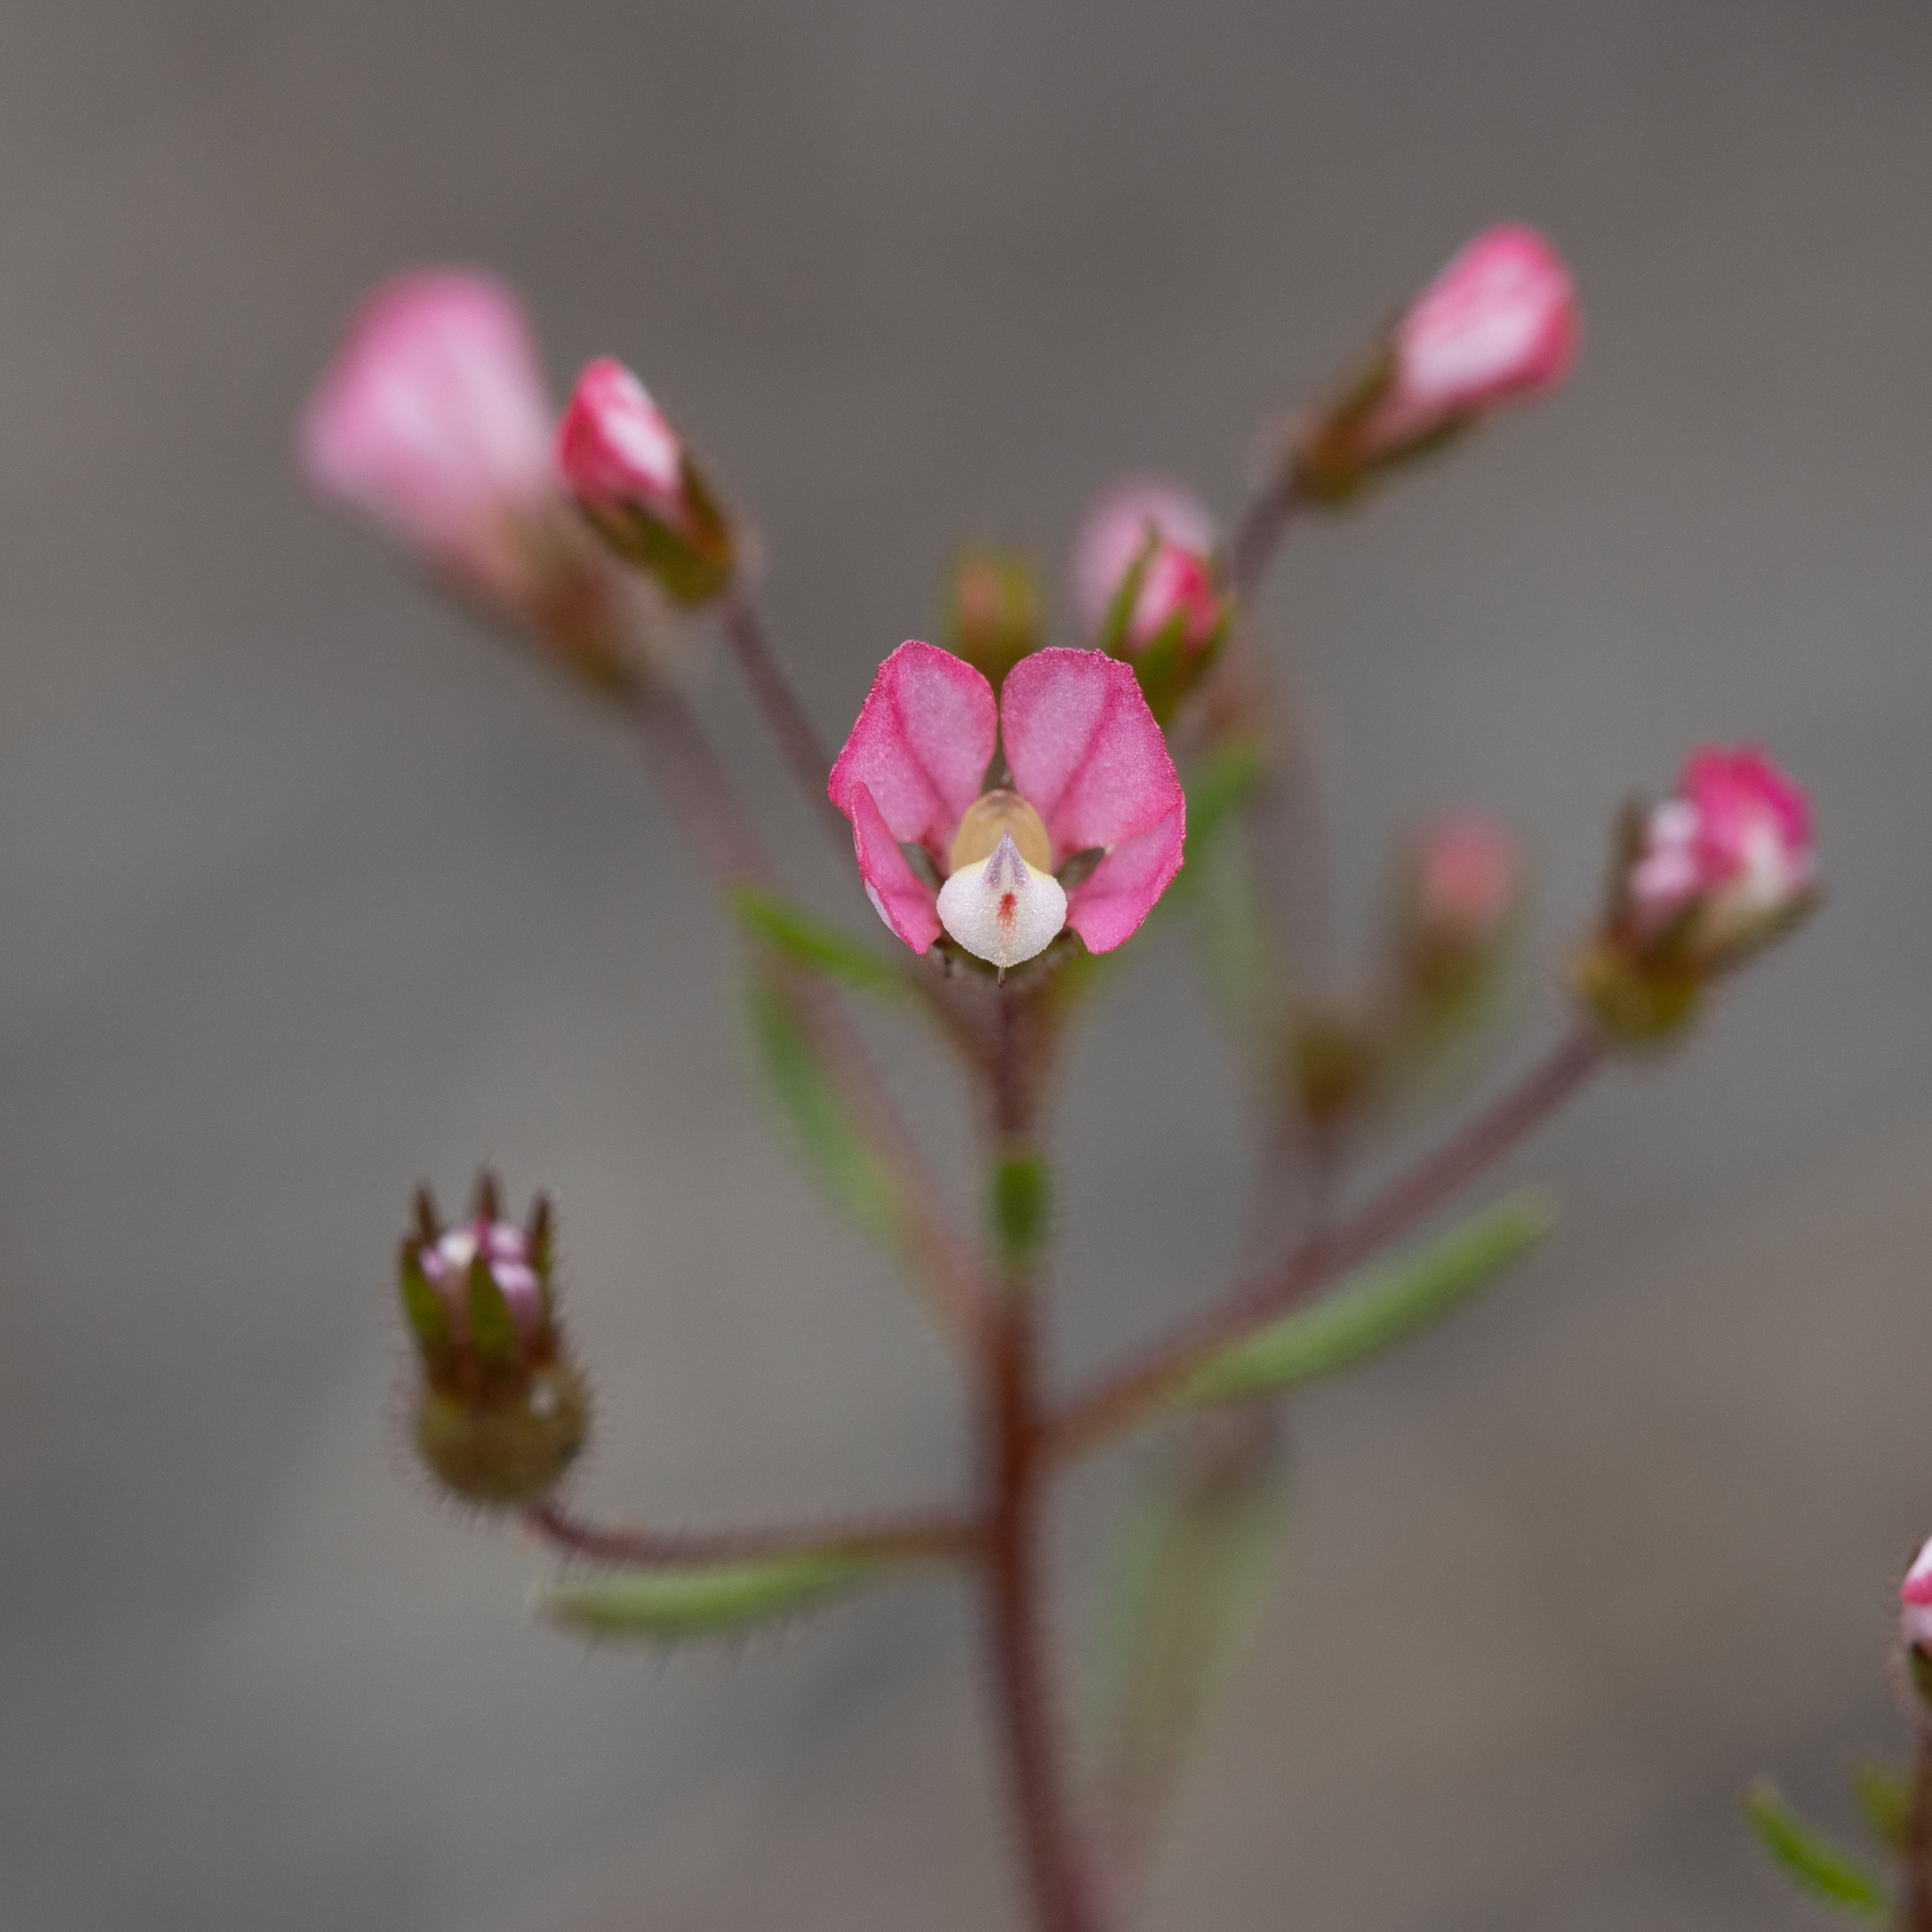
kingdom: Plantae
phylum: Tracheophyta
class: Magnoliopsida
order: Asterales
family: Stylidiaceae
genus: Levenhookia
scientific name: Levenhookia stipitata
